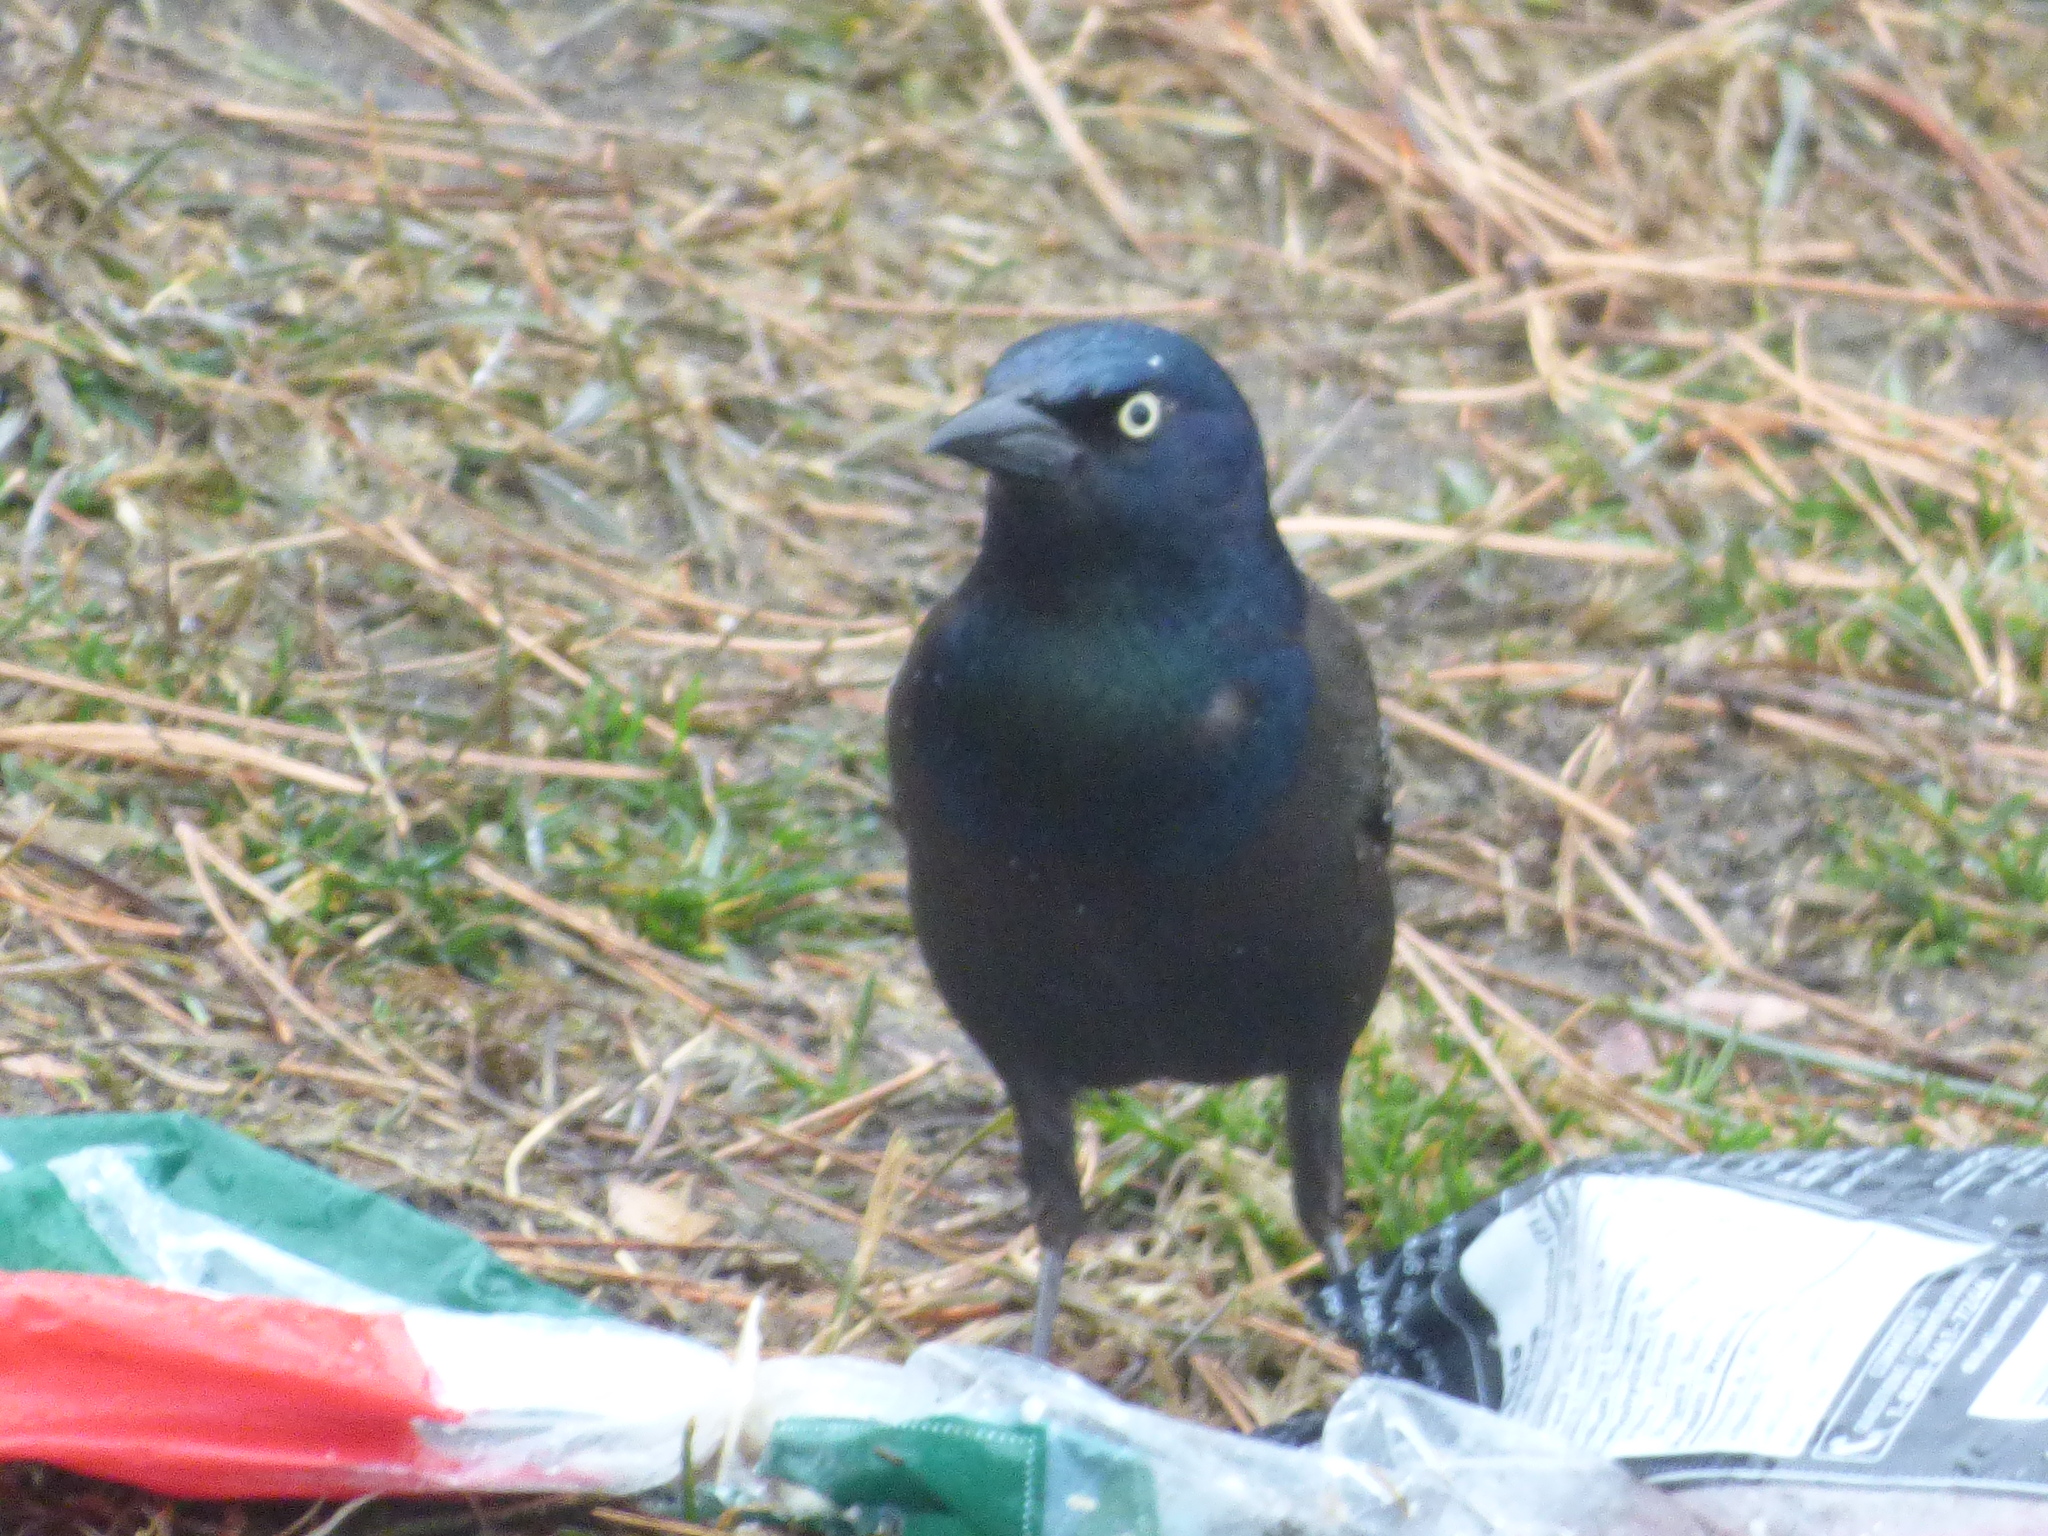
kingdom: Animalia
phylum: Chordata
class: Aves
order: Passeriformes
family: Icteridae
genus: Quiscalus
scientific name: Quiscalus quiscula
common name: Common grackle
